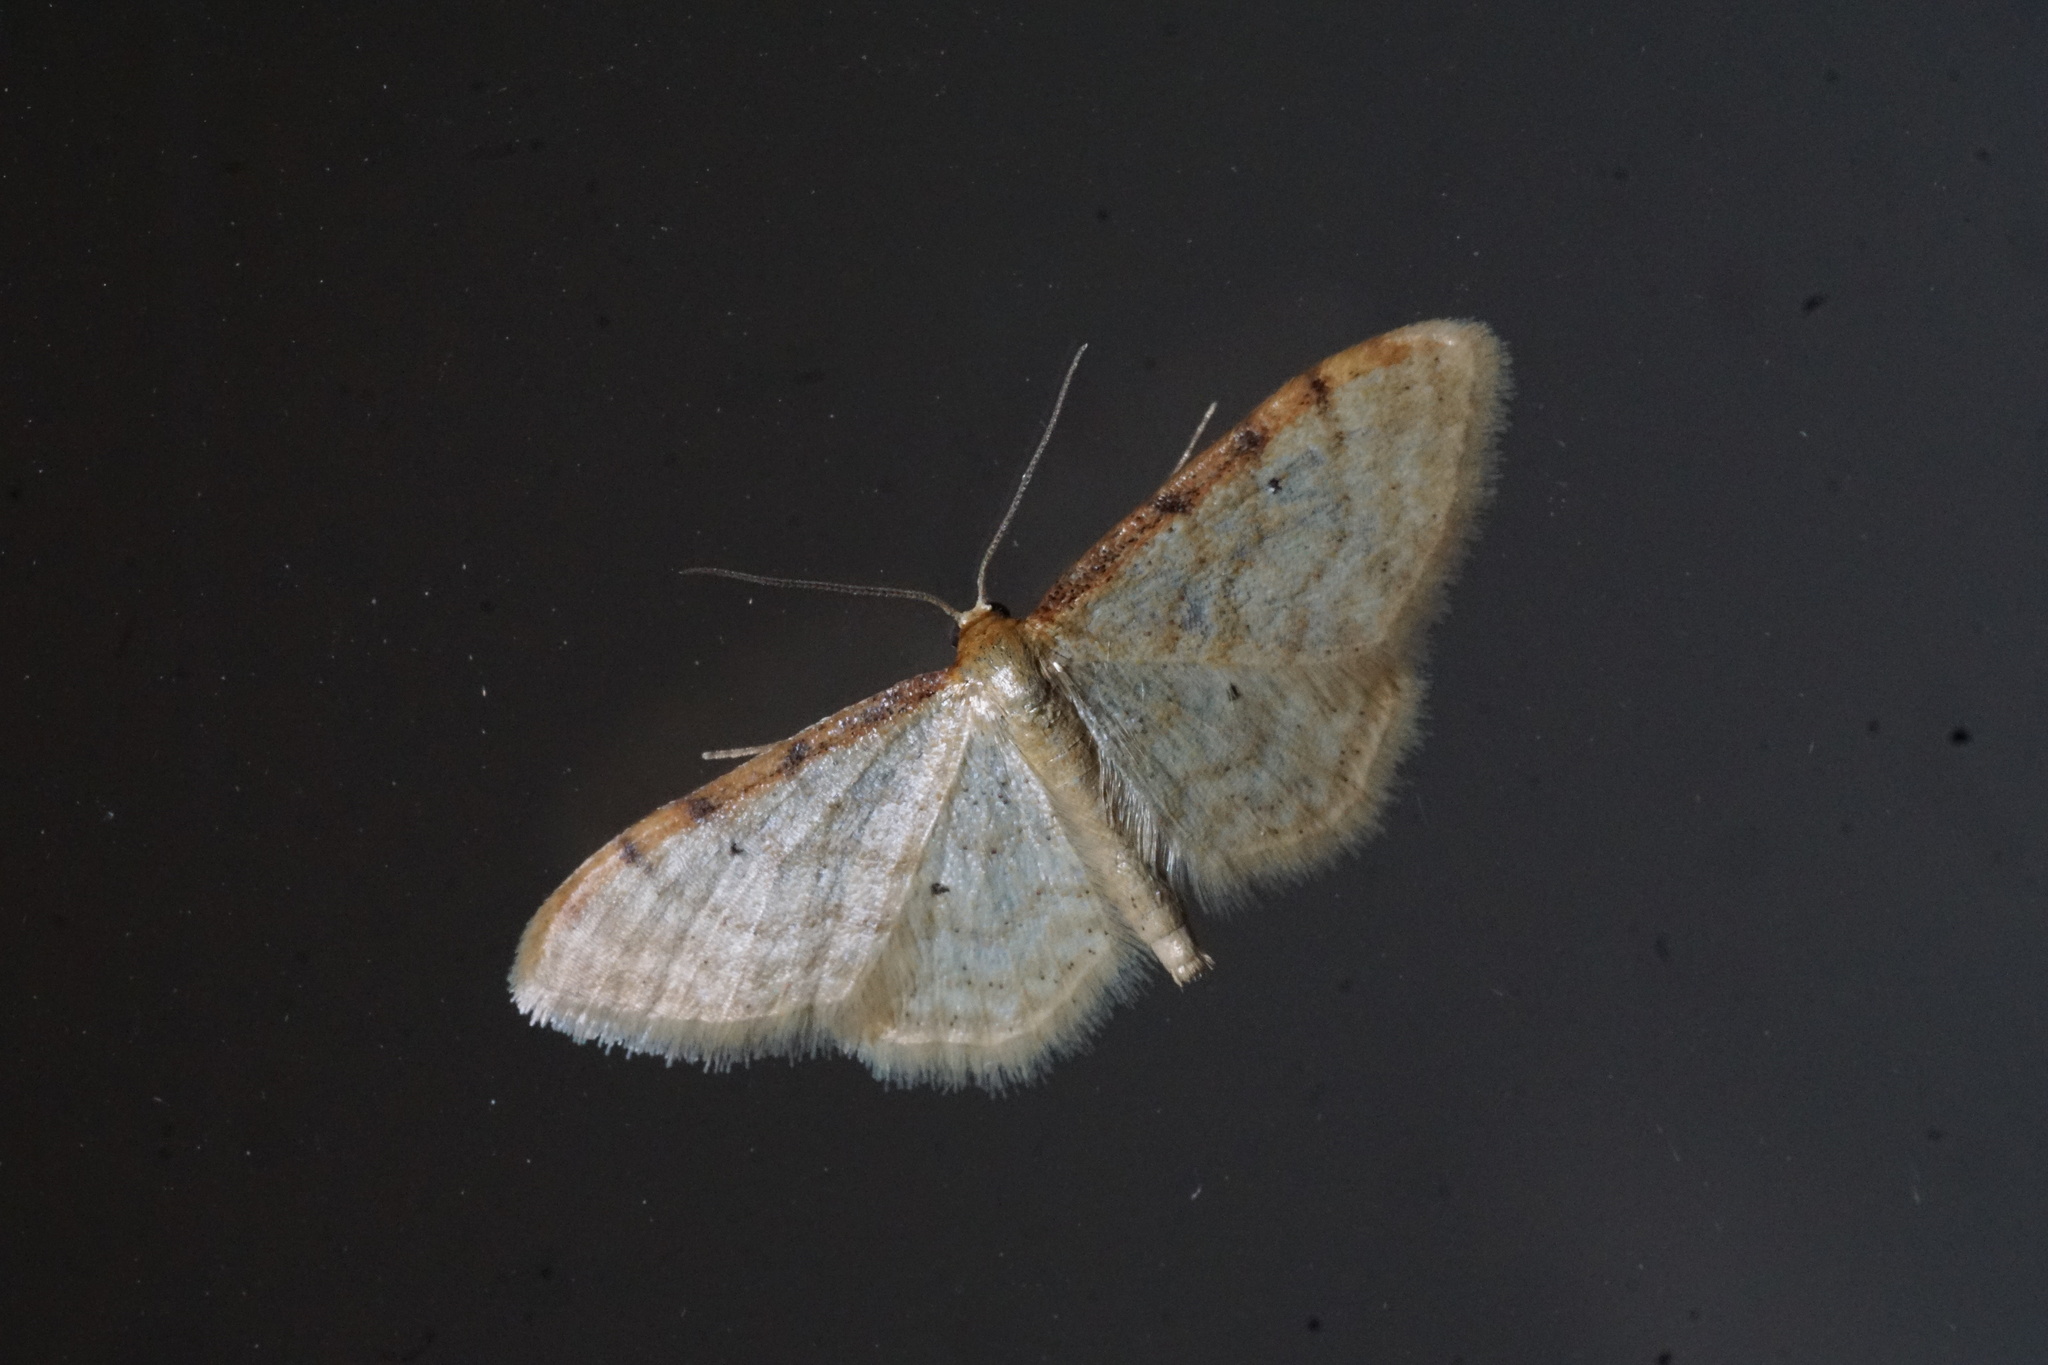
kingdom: Animalia
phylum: Arthropoda
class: Insecta
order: Lepidoptera
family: Geometridae
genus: Idaea
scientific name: Idaea humiliata
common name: Isle of wight wave
